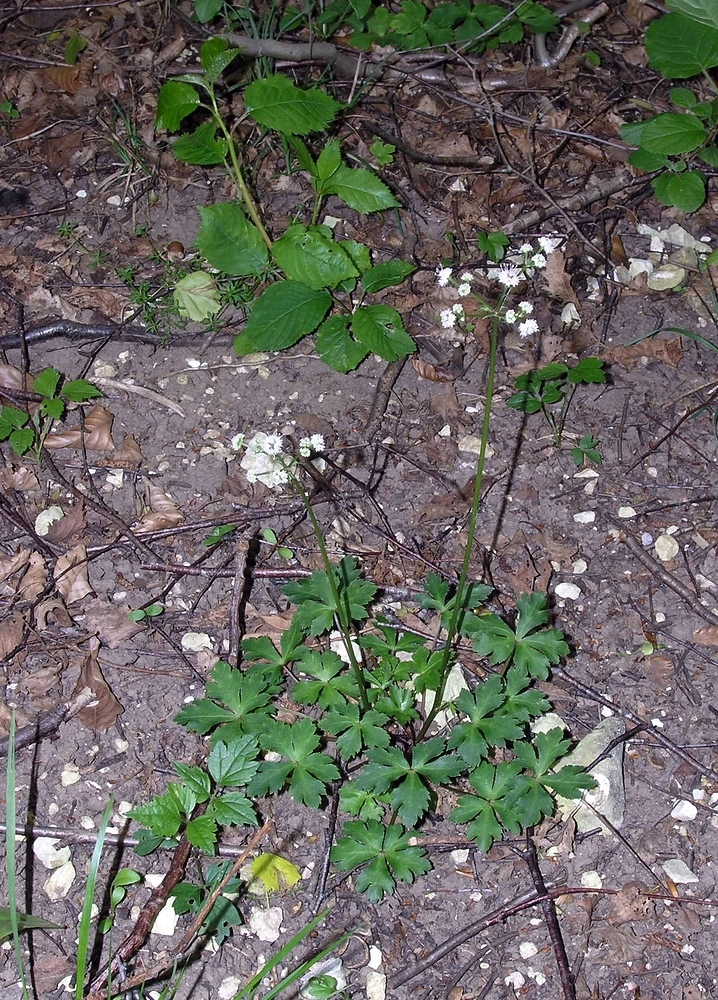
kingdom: Plantae
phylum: Tracheophyta
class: Magnoliopsida
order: Apiales
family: Apiaceae
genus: Sanicula
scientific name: Sanicula europaea
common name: Sanicle
